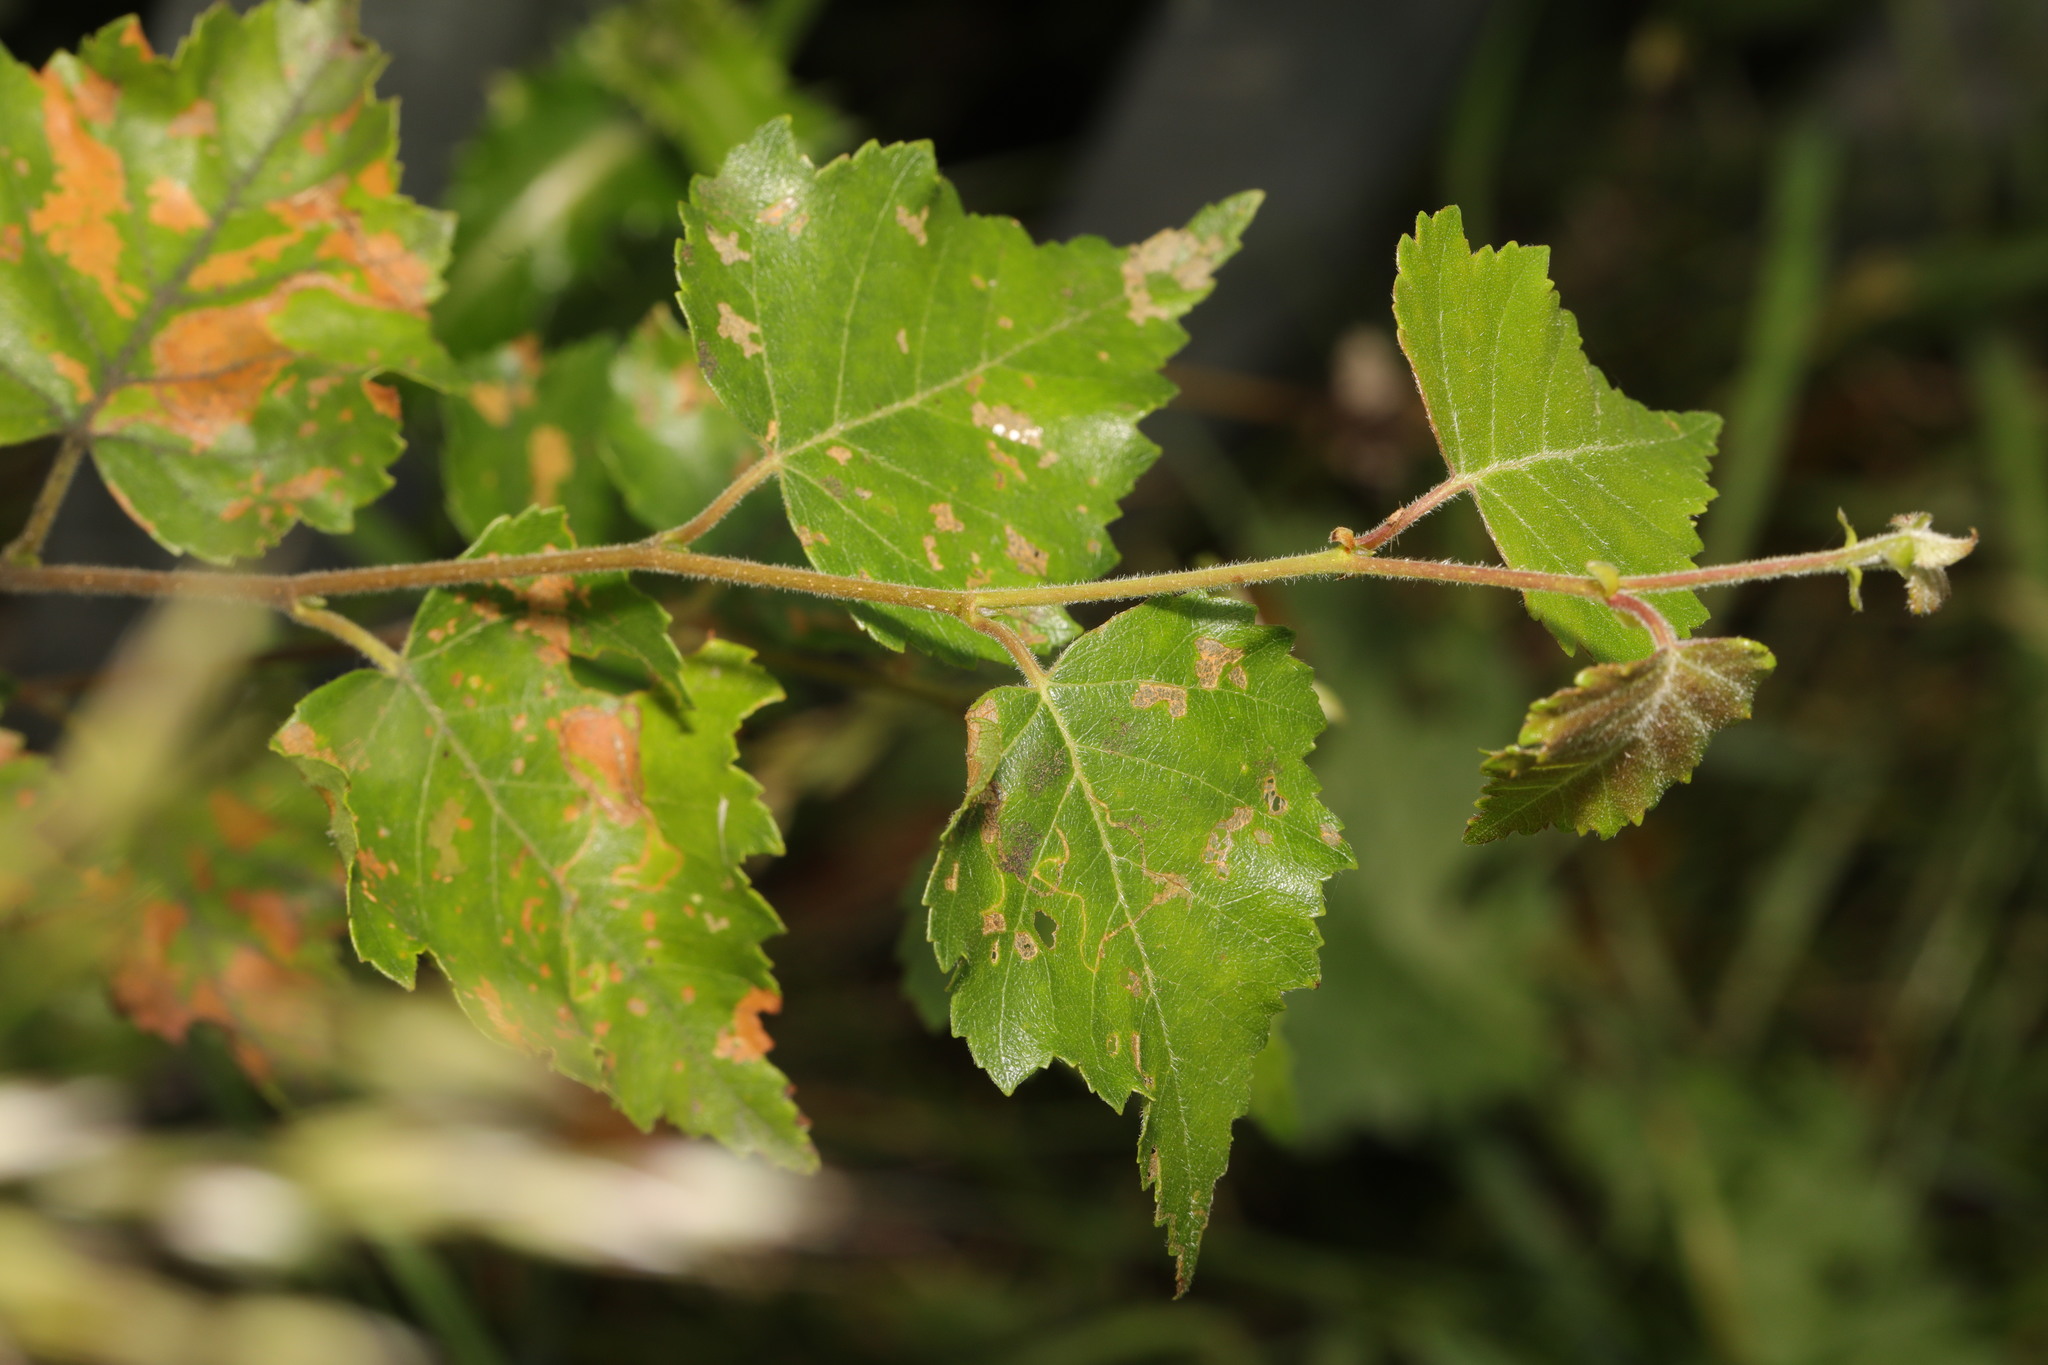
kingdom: Plantae
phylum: Tracheophyta
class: Magnoliopsida
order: Fagales
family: Betulaceae
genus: Betula
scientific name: Betula pubescens
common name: Downy birch
